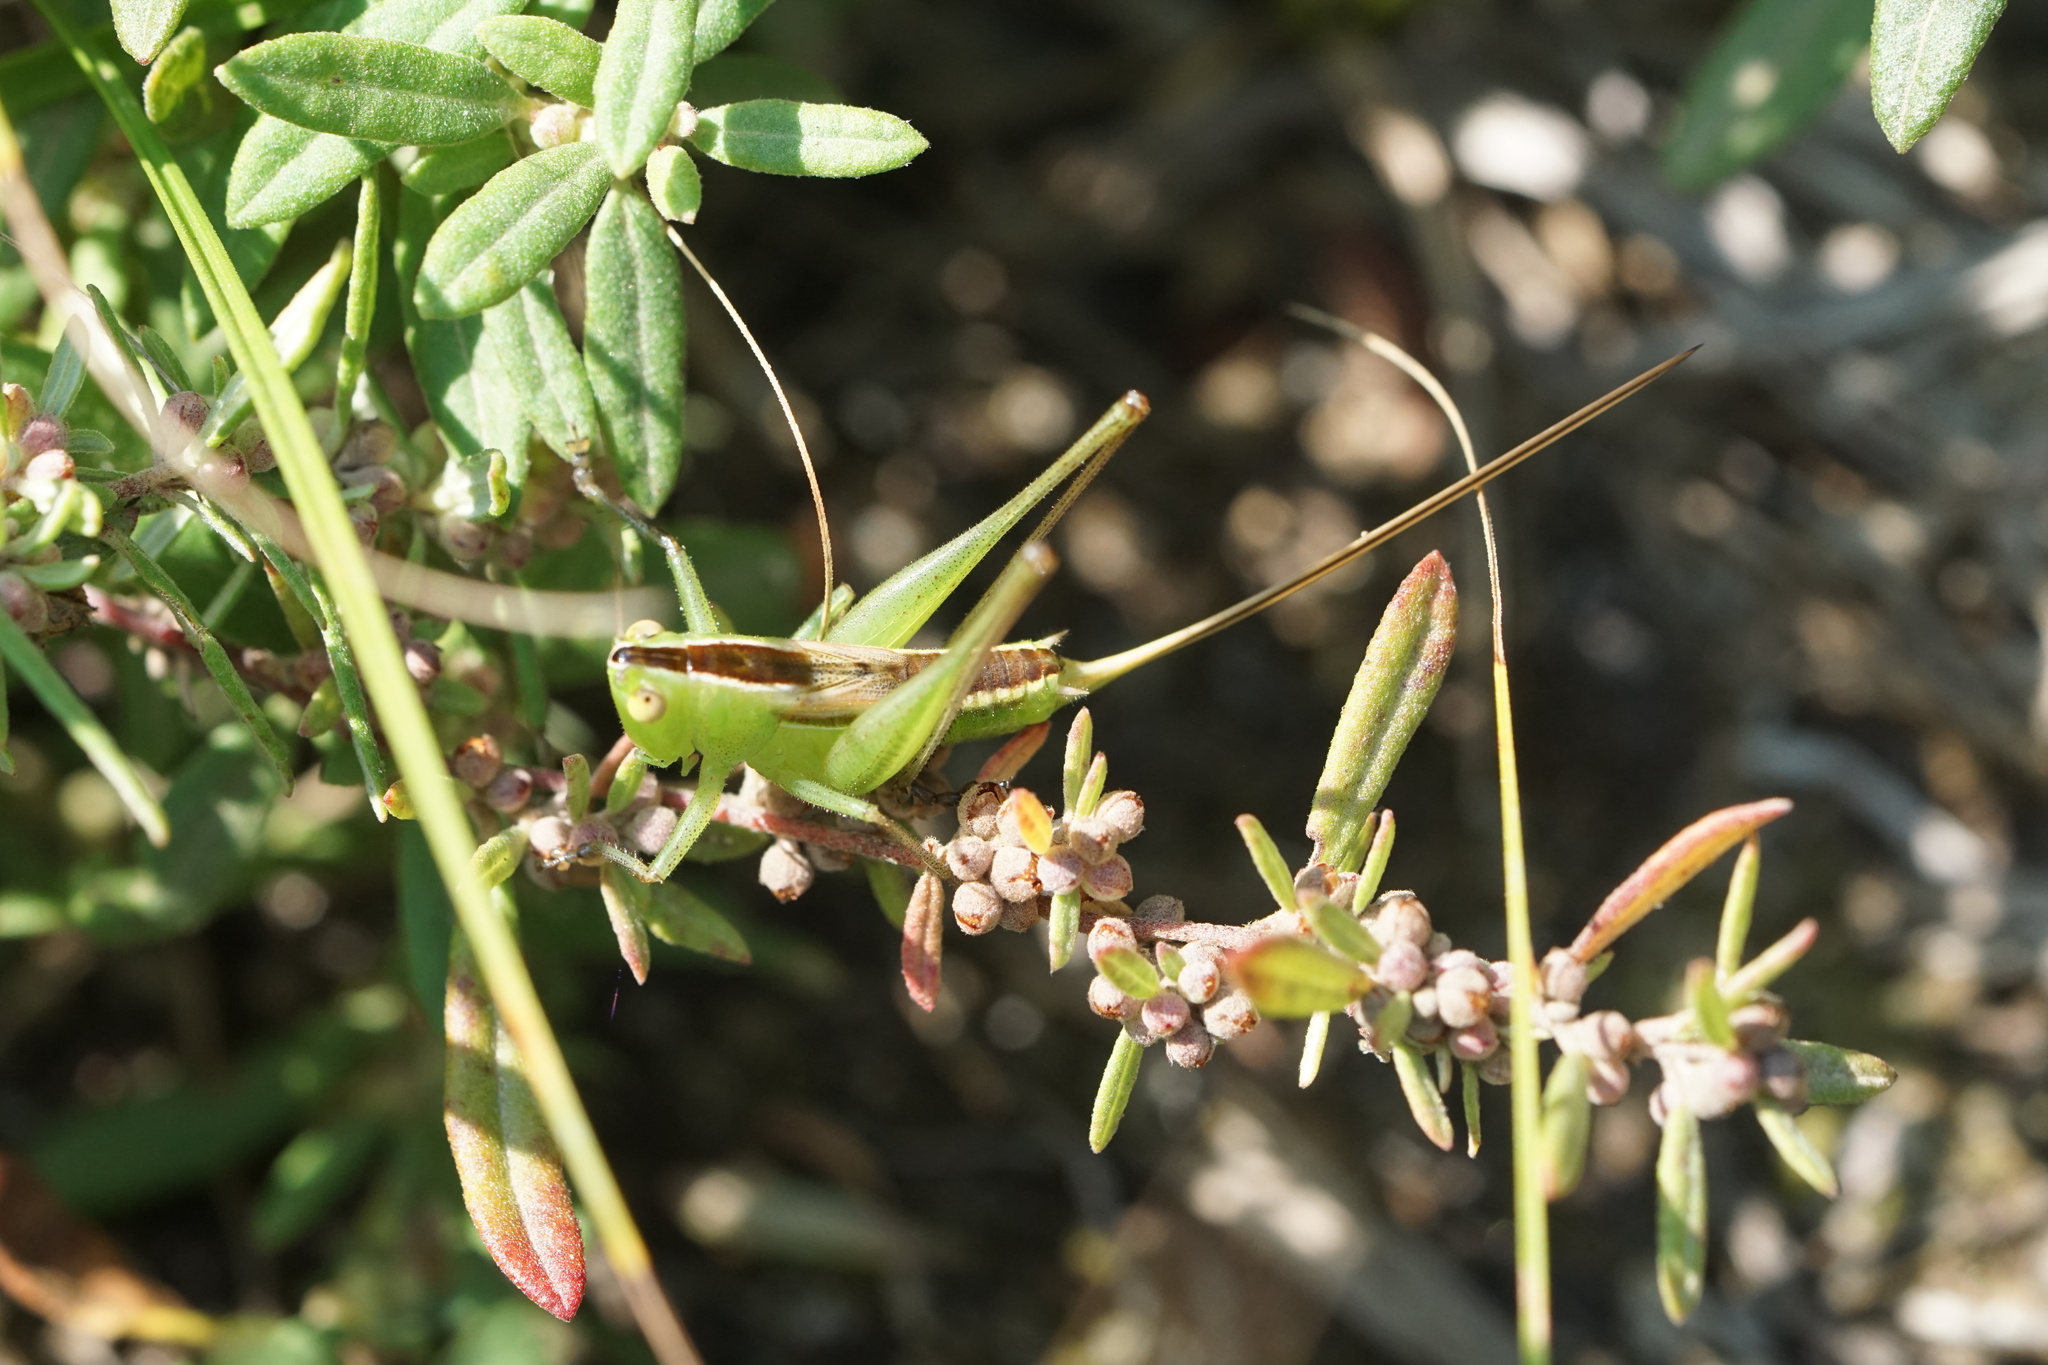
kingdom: Animalia
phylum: Arthropoda
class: Insecta
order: Orthoptera
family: Tettigoniidae
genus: Conocephalus
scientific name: Conocephalus strictus
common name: Straight-lanced katydid
